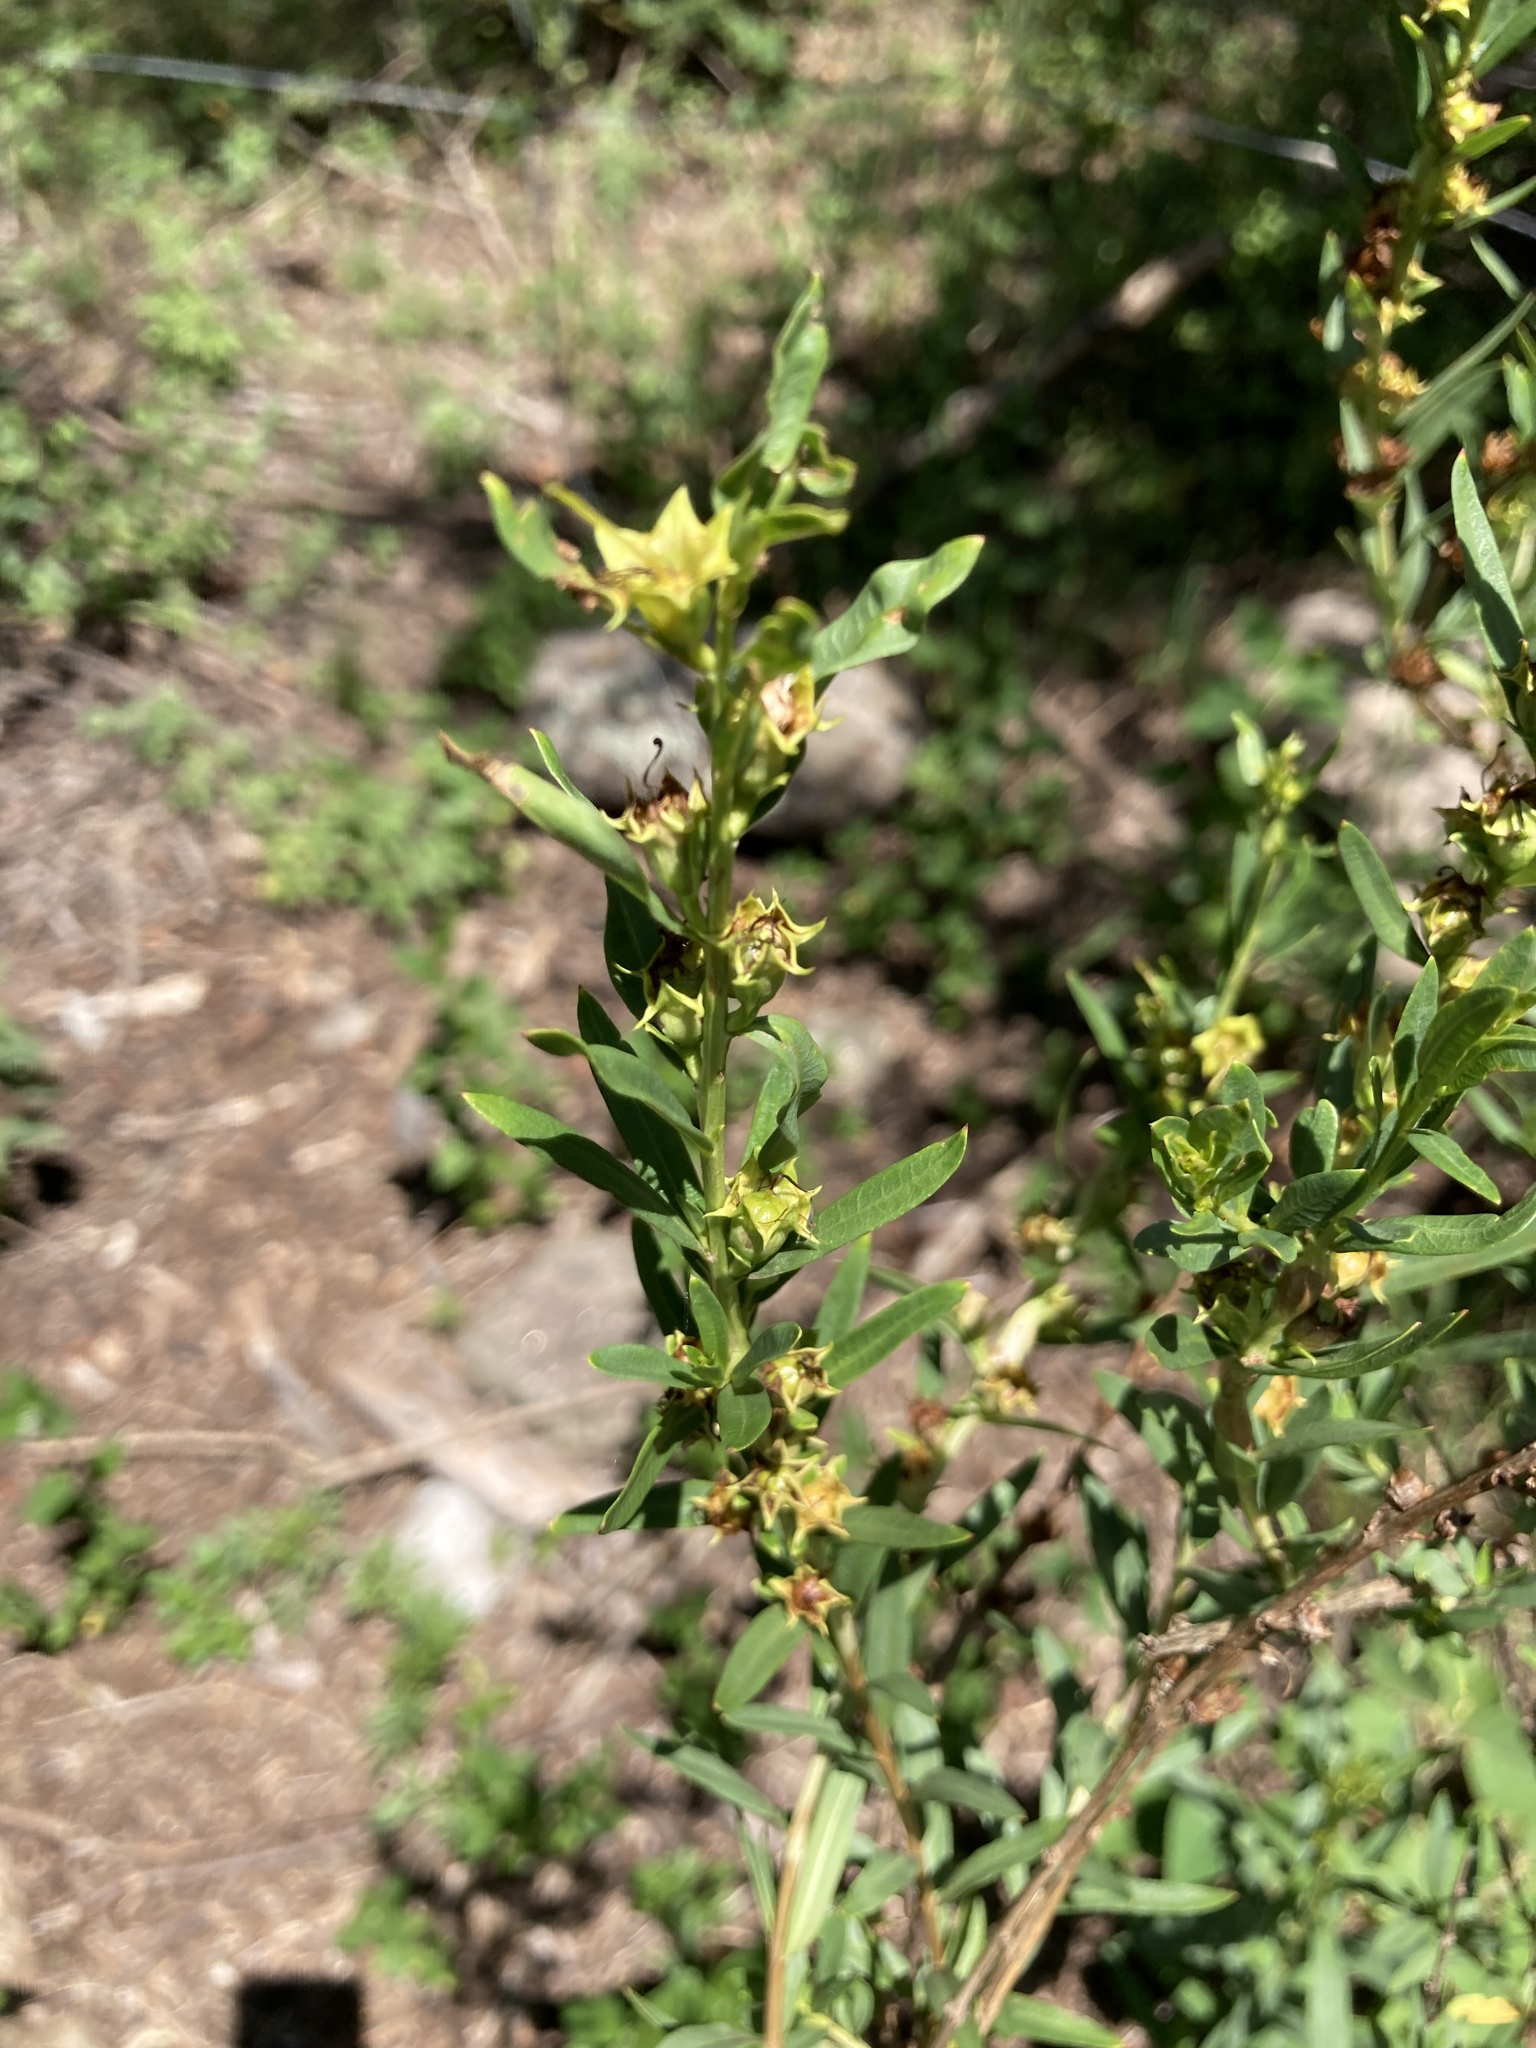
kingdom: Plantae
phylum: Tracheophyta
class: Magnoliopsida
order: Myrtales
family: Lythraceae
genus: Heimia
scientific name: Heimia salicifolia
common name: Willow-leaf heimia
